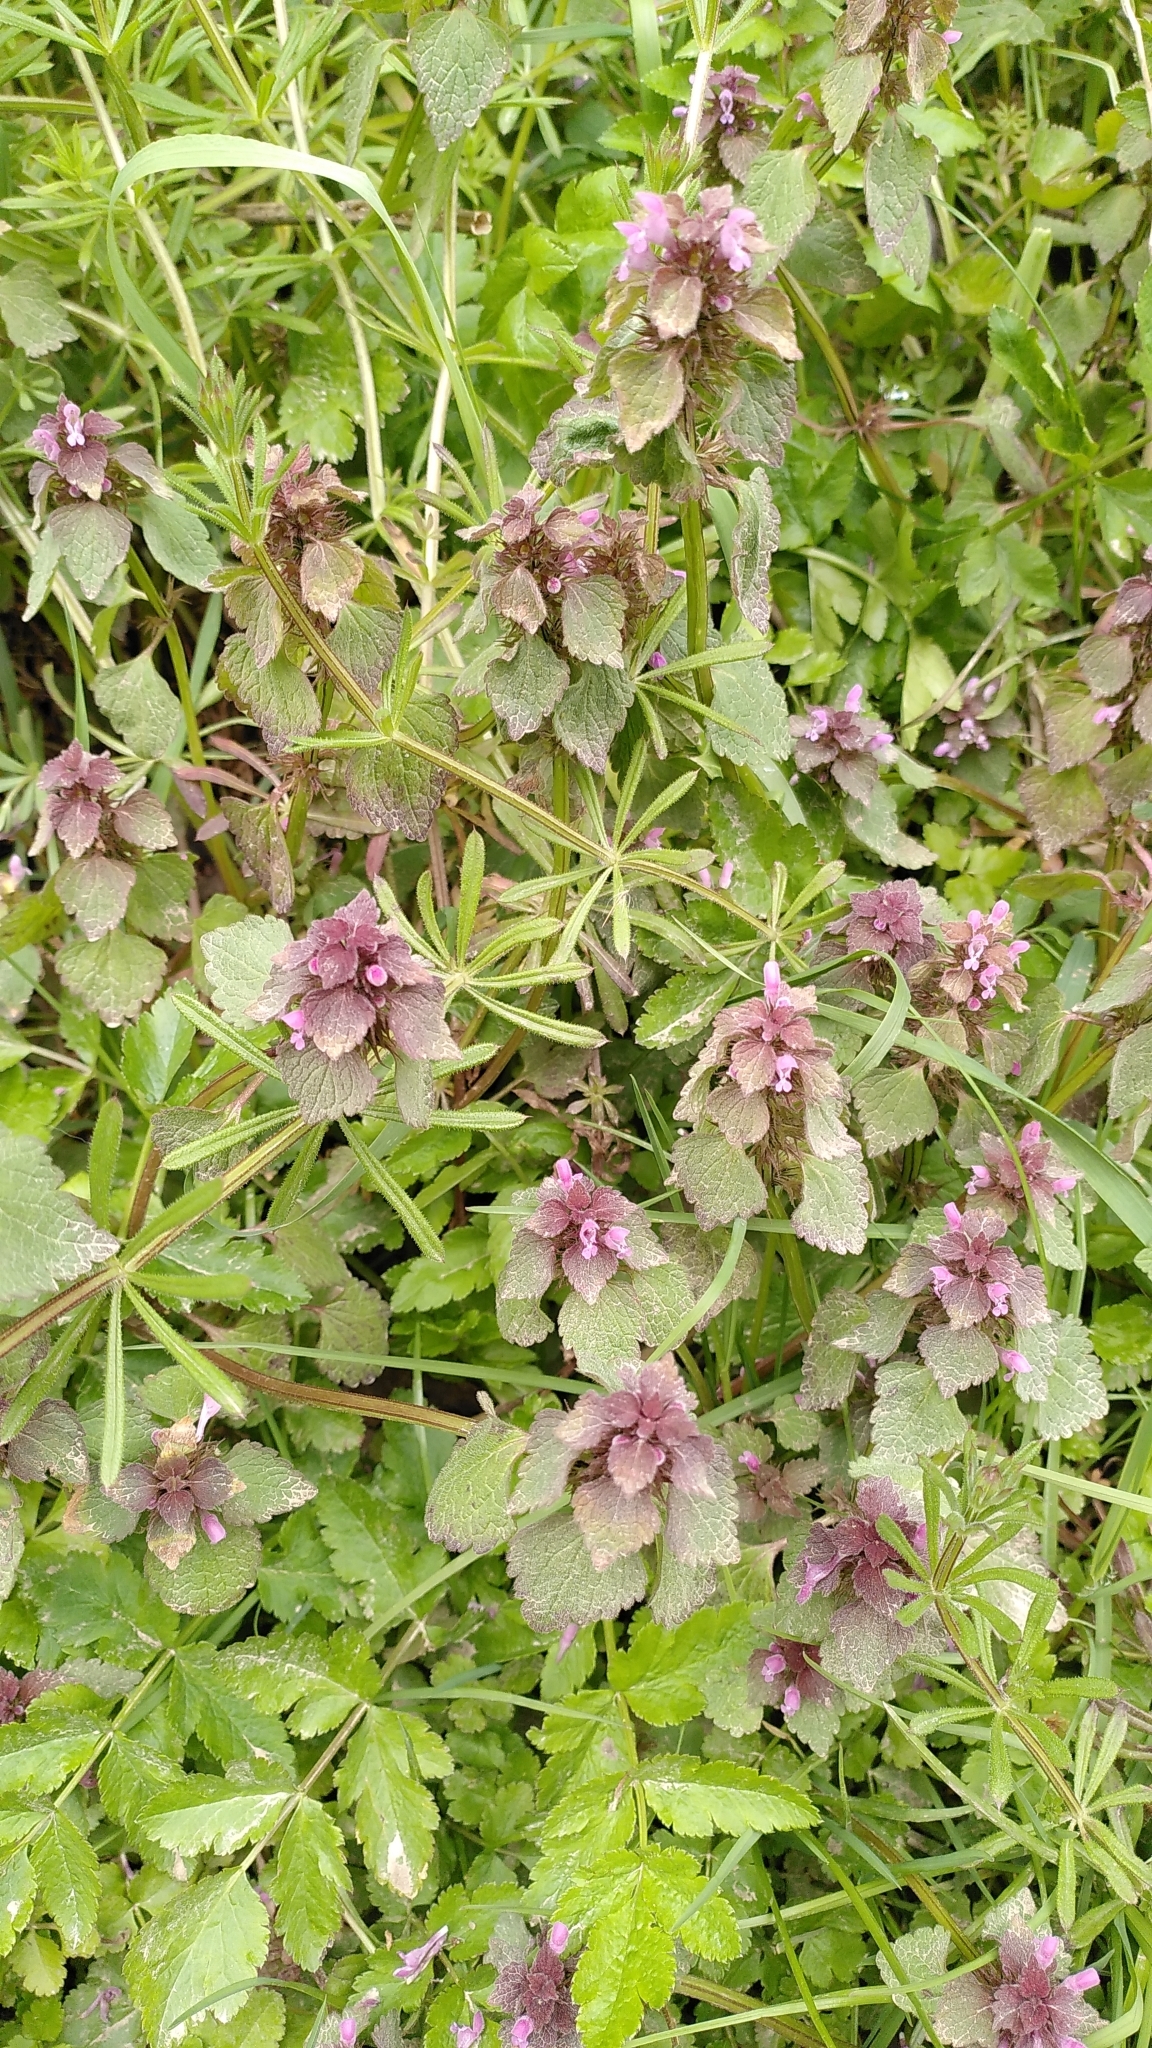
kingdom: Plantae
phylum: Tracheophyta
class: Magnoliopsida
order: Lamiales
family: Lamiaceae
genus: Lamium
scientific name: Lamium purpureum
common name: Red dead-nettle
